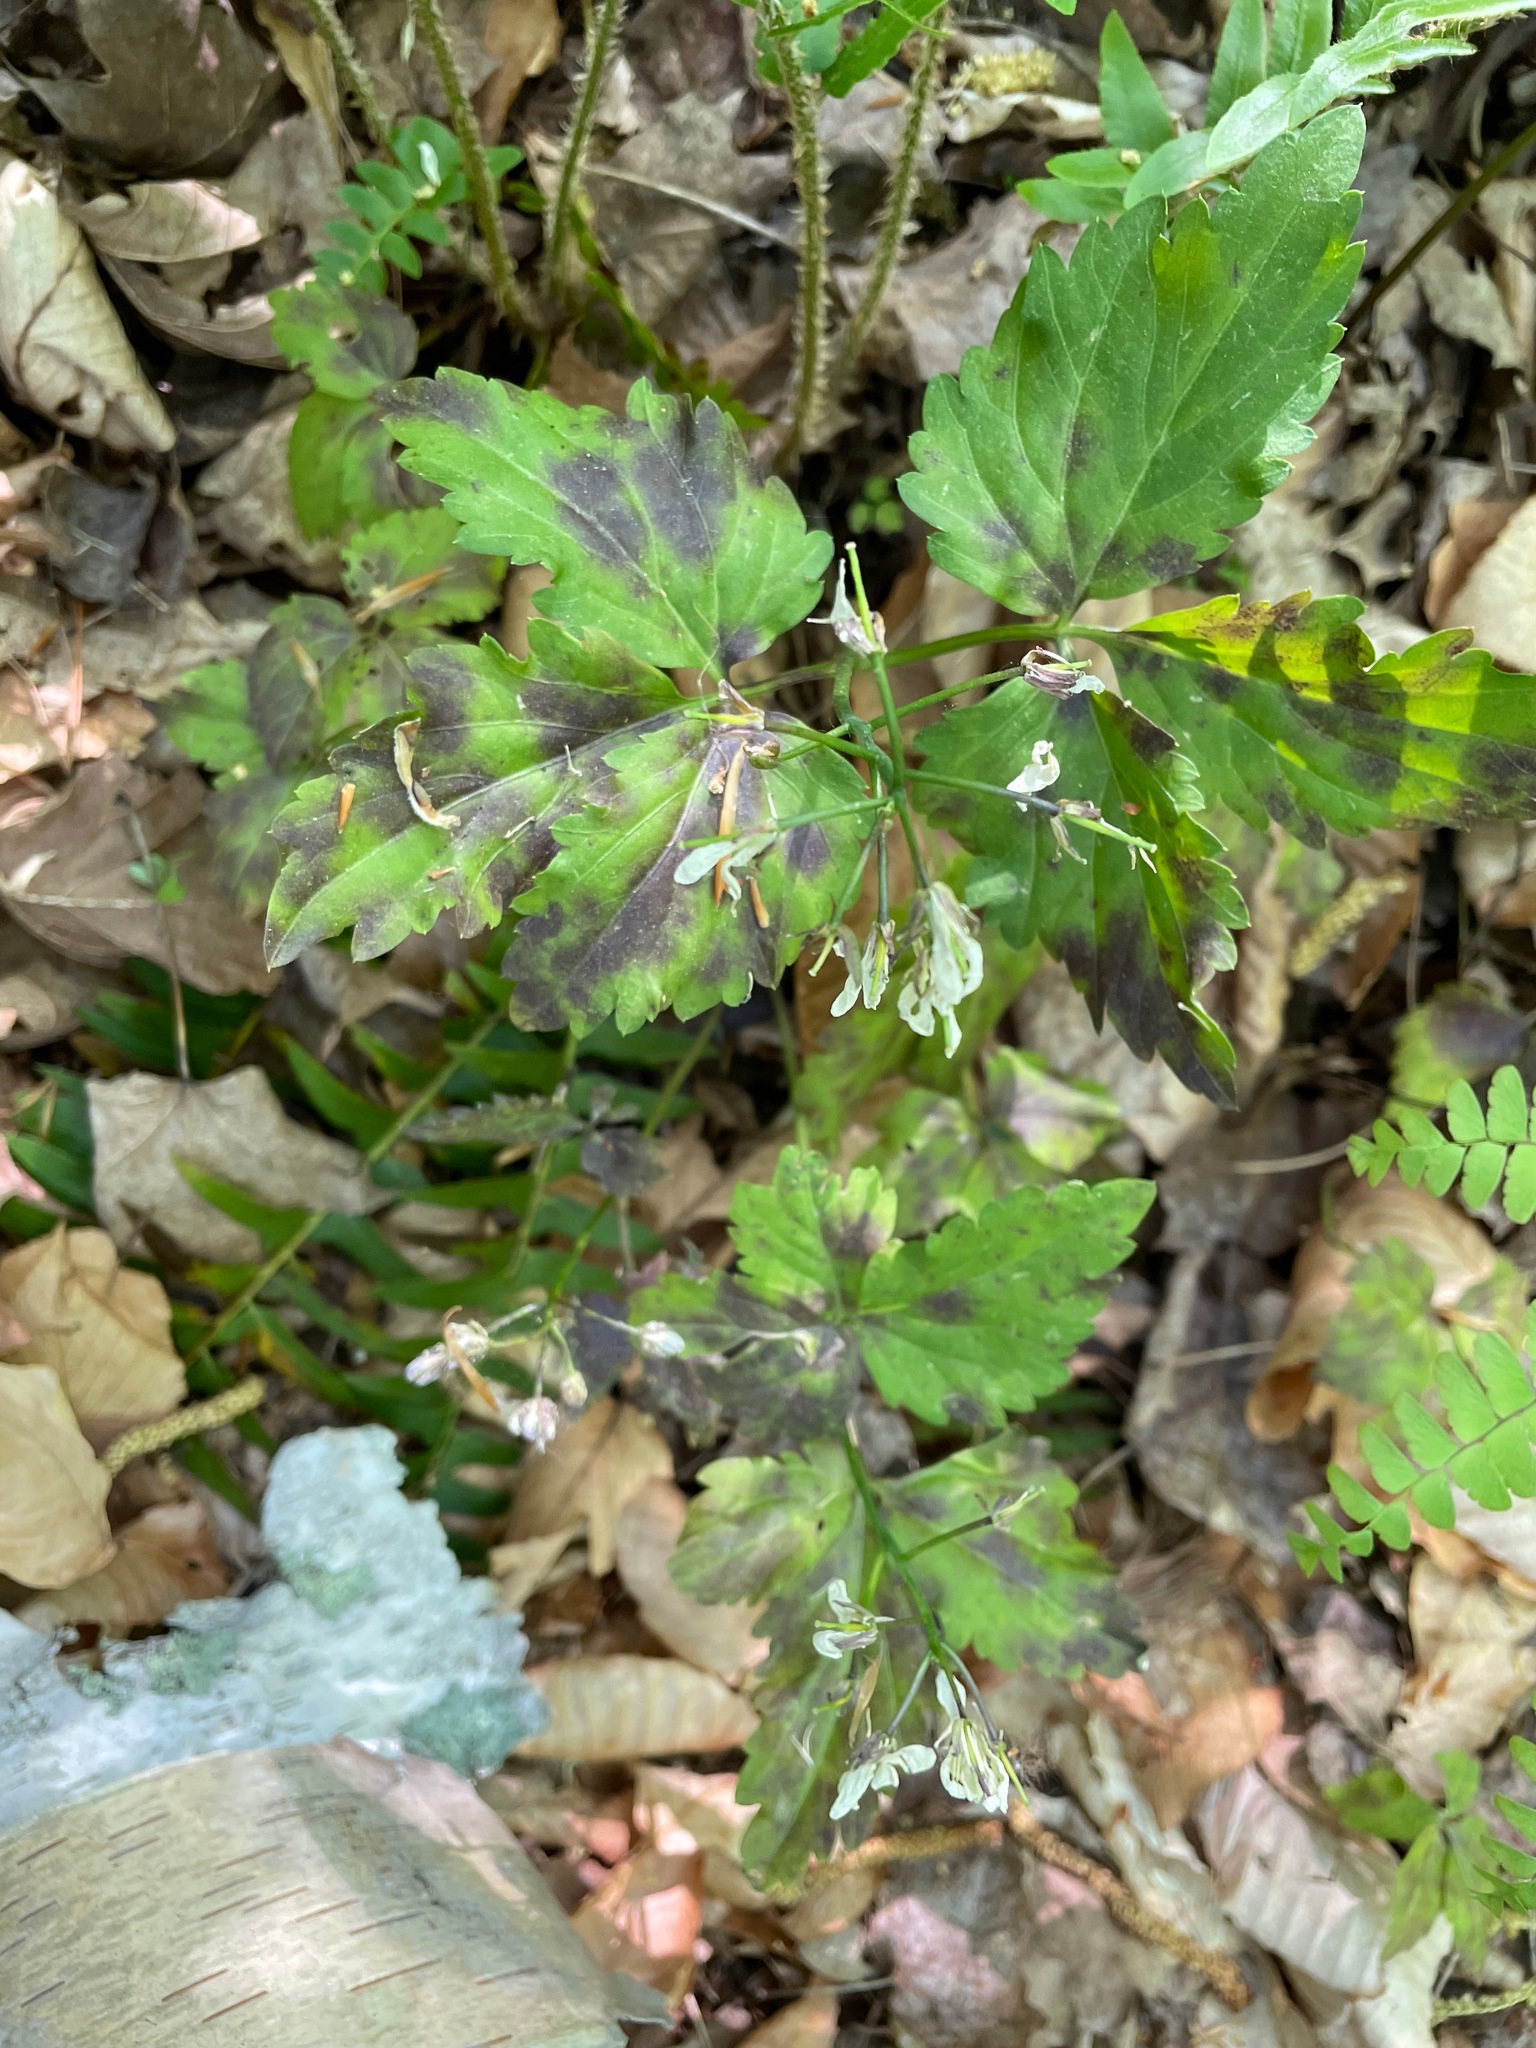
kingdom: Plantae
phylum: Tracheophyta
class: Magnoliopsida
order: Brassicales
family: Brassicaceae
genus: Cardamine
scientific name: Cardamine diphylla
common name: Broad-leaved toothwort
